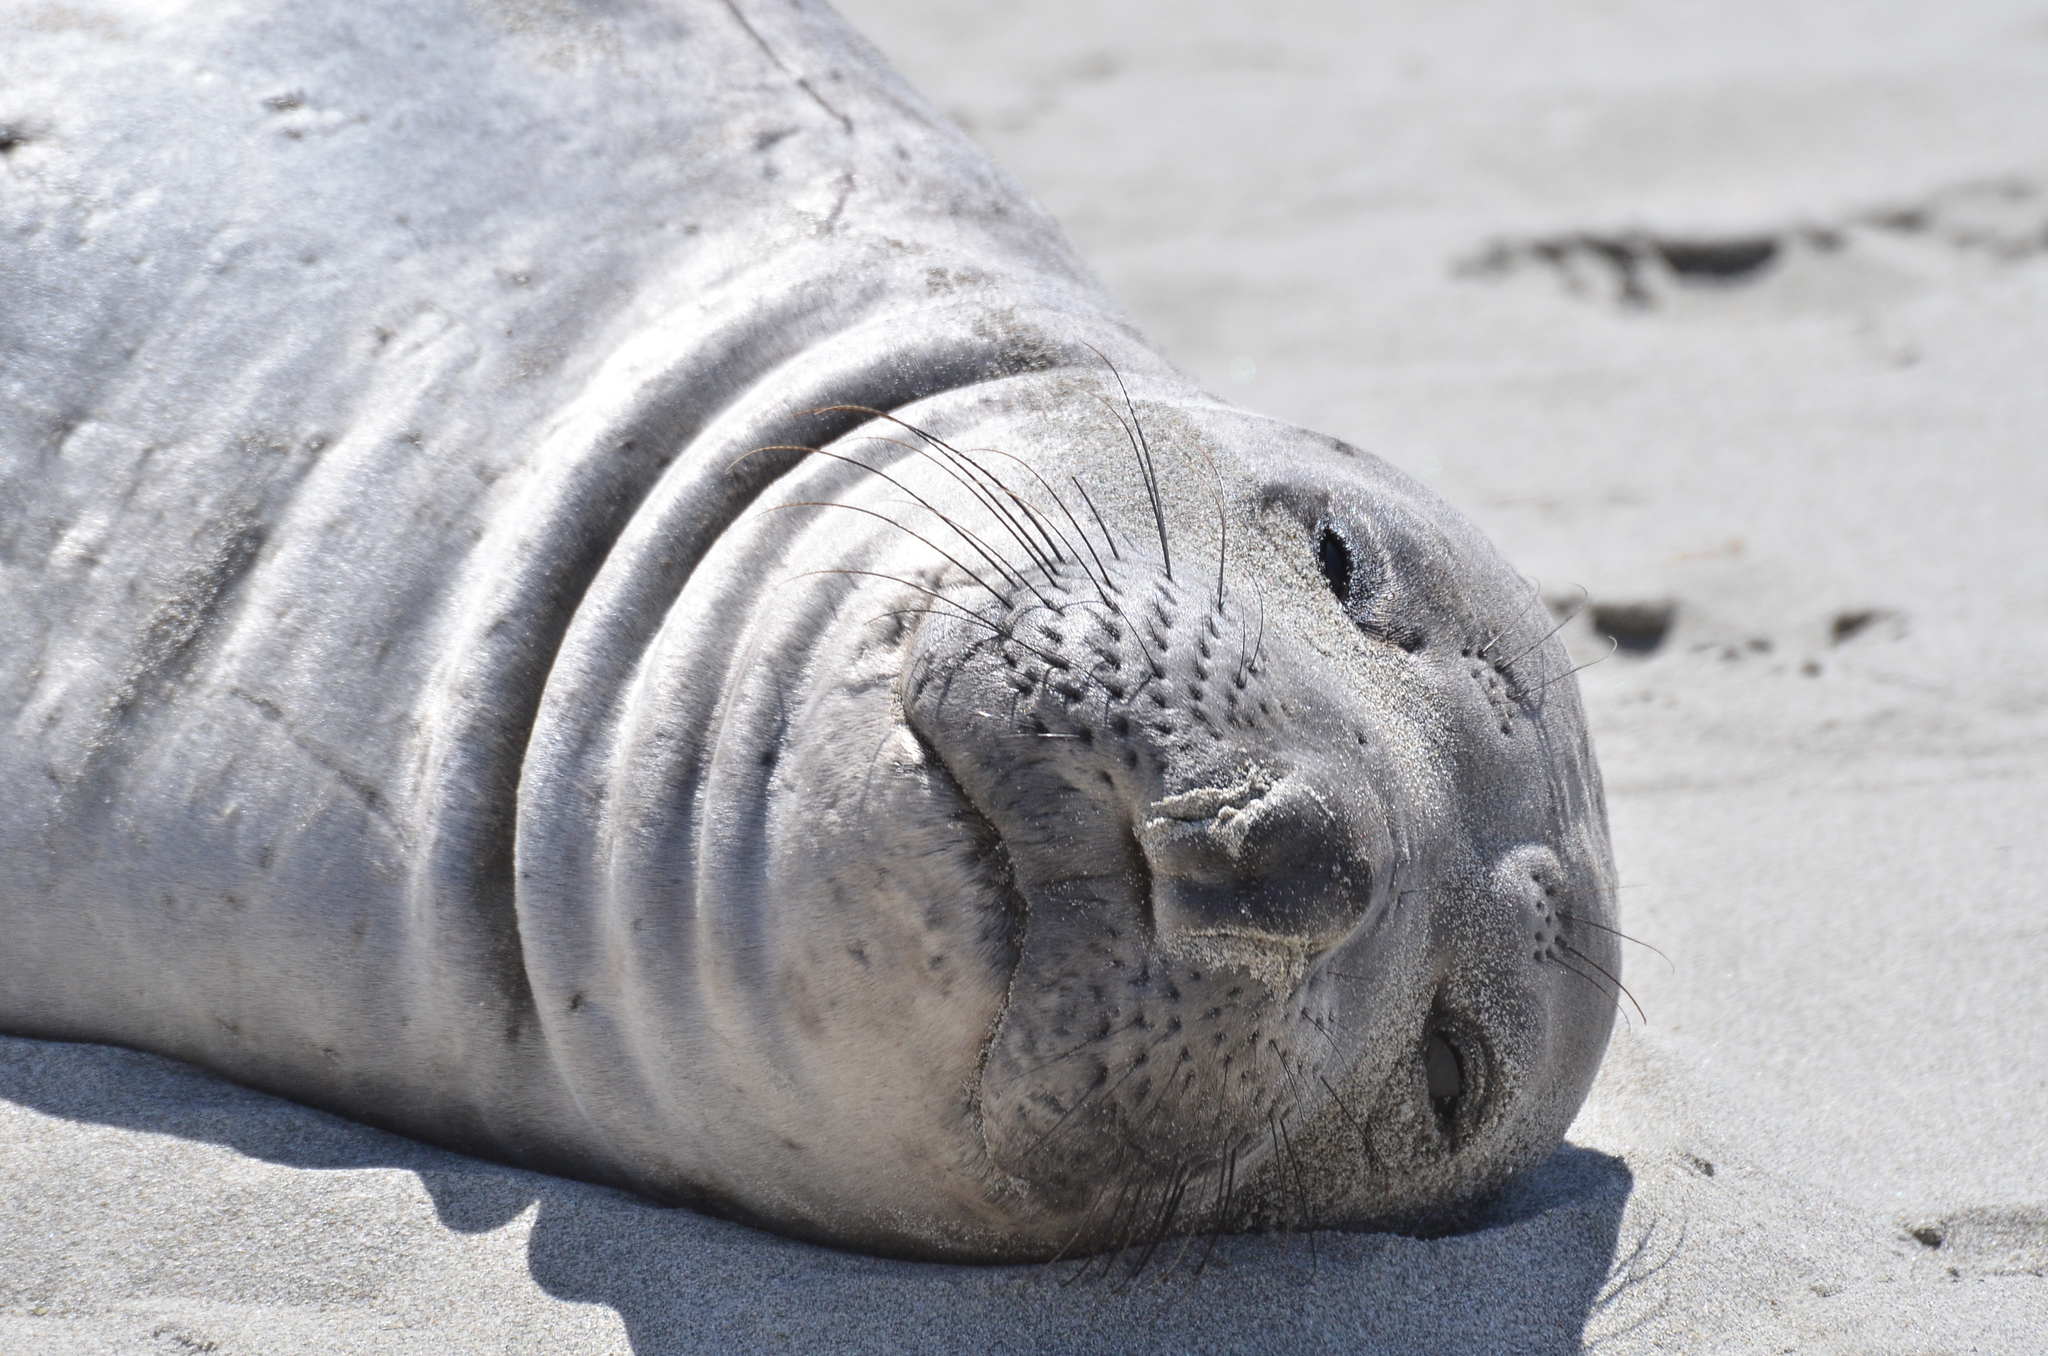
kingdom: Animalia
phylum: Chordata
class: Mammalia
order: Carnivora
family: Phocidae
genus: Mirounga
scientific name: Mirounga angustirostris
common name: Northern elephant seal
